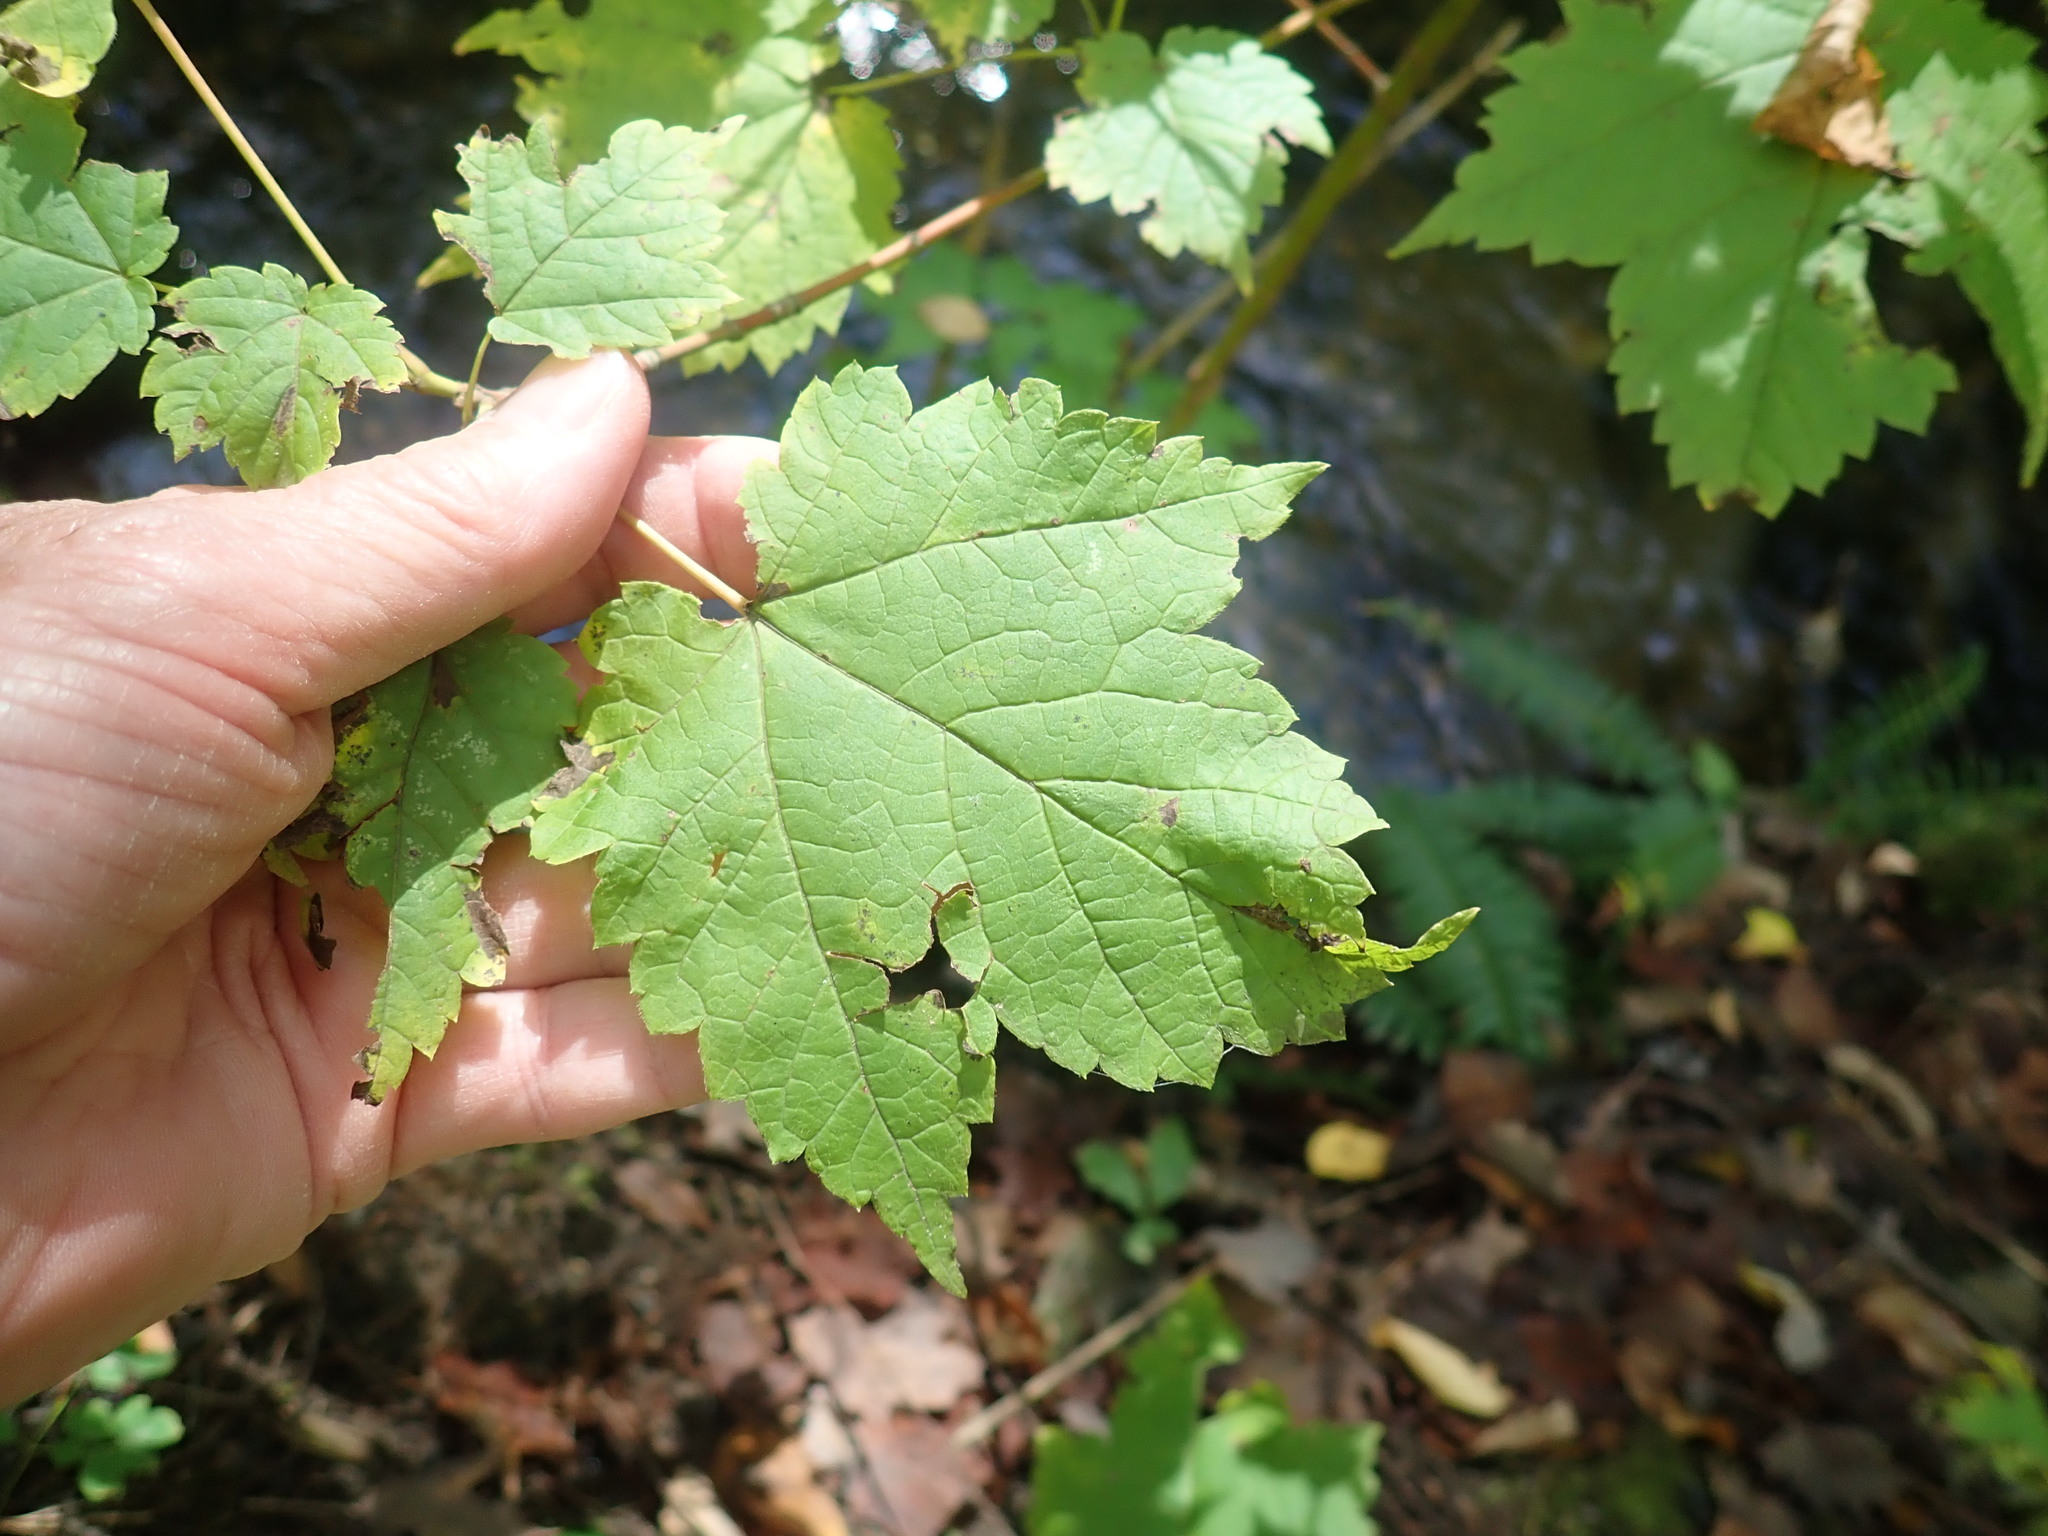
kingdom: Plantae
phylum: Tracheophyta
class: Magnoliopsida
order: Sapindales
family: Sapindaceae
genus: Acer
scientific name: Acer spicatum
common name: Mountain maple
